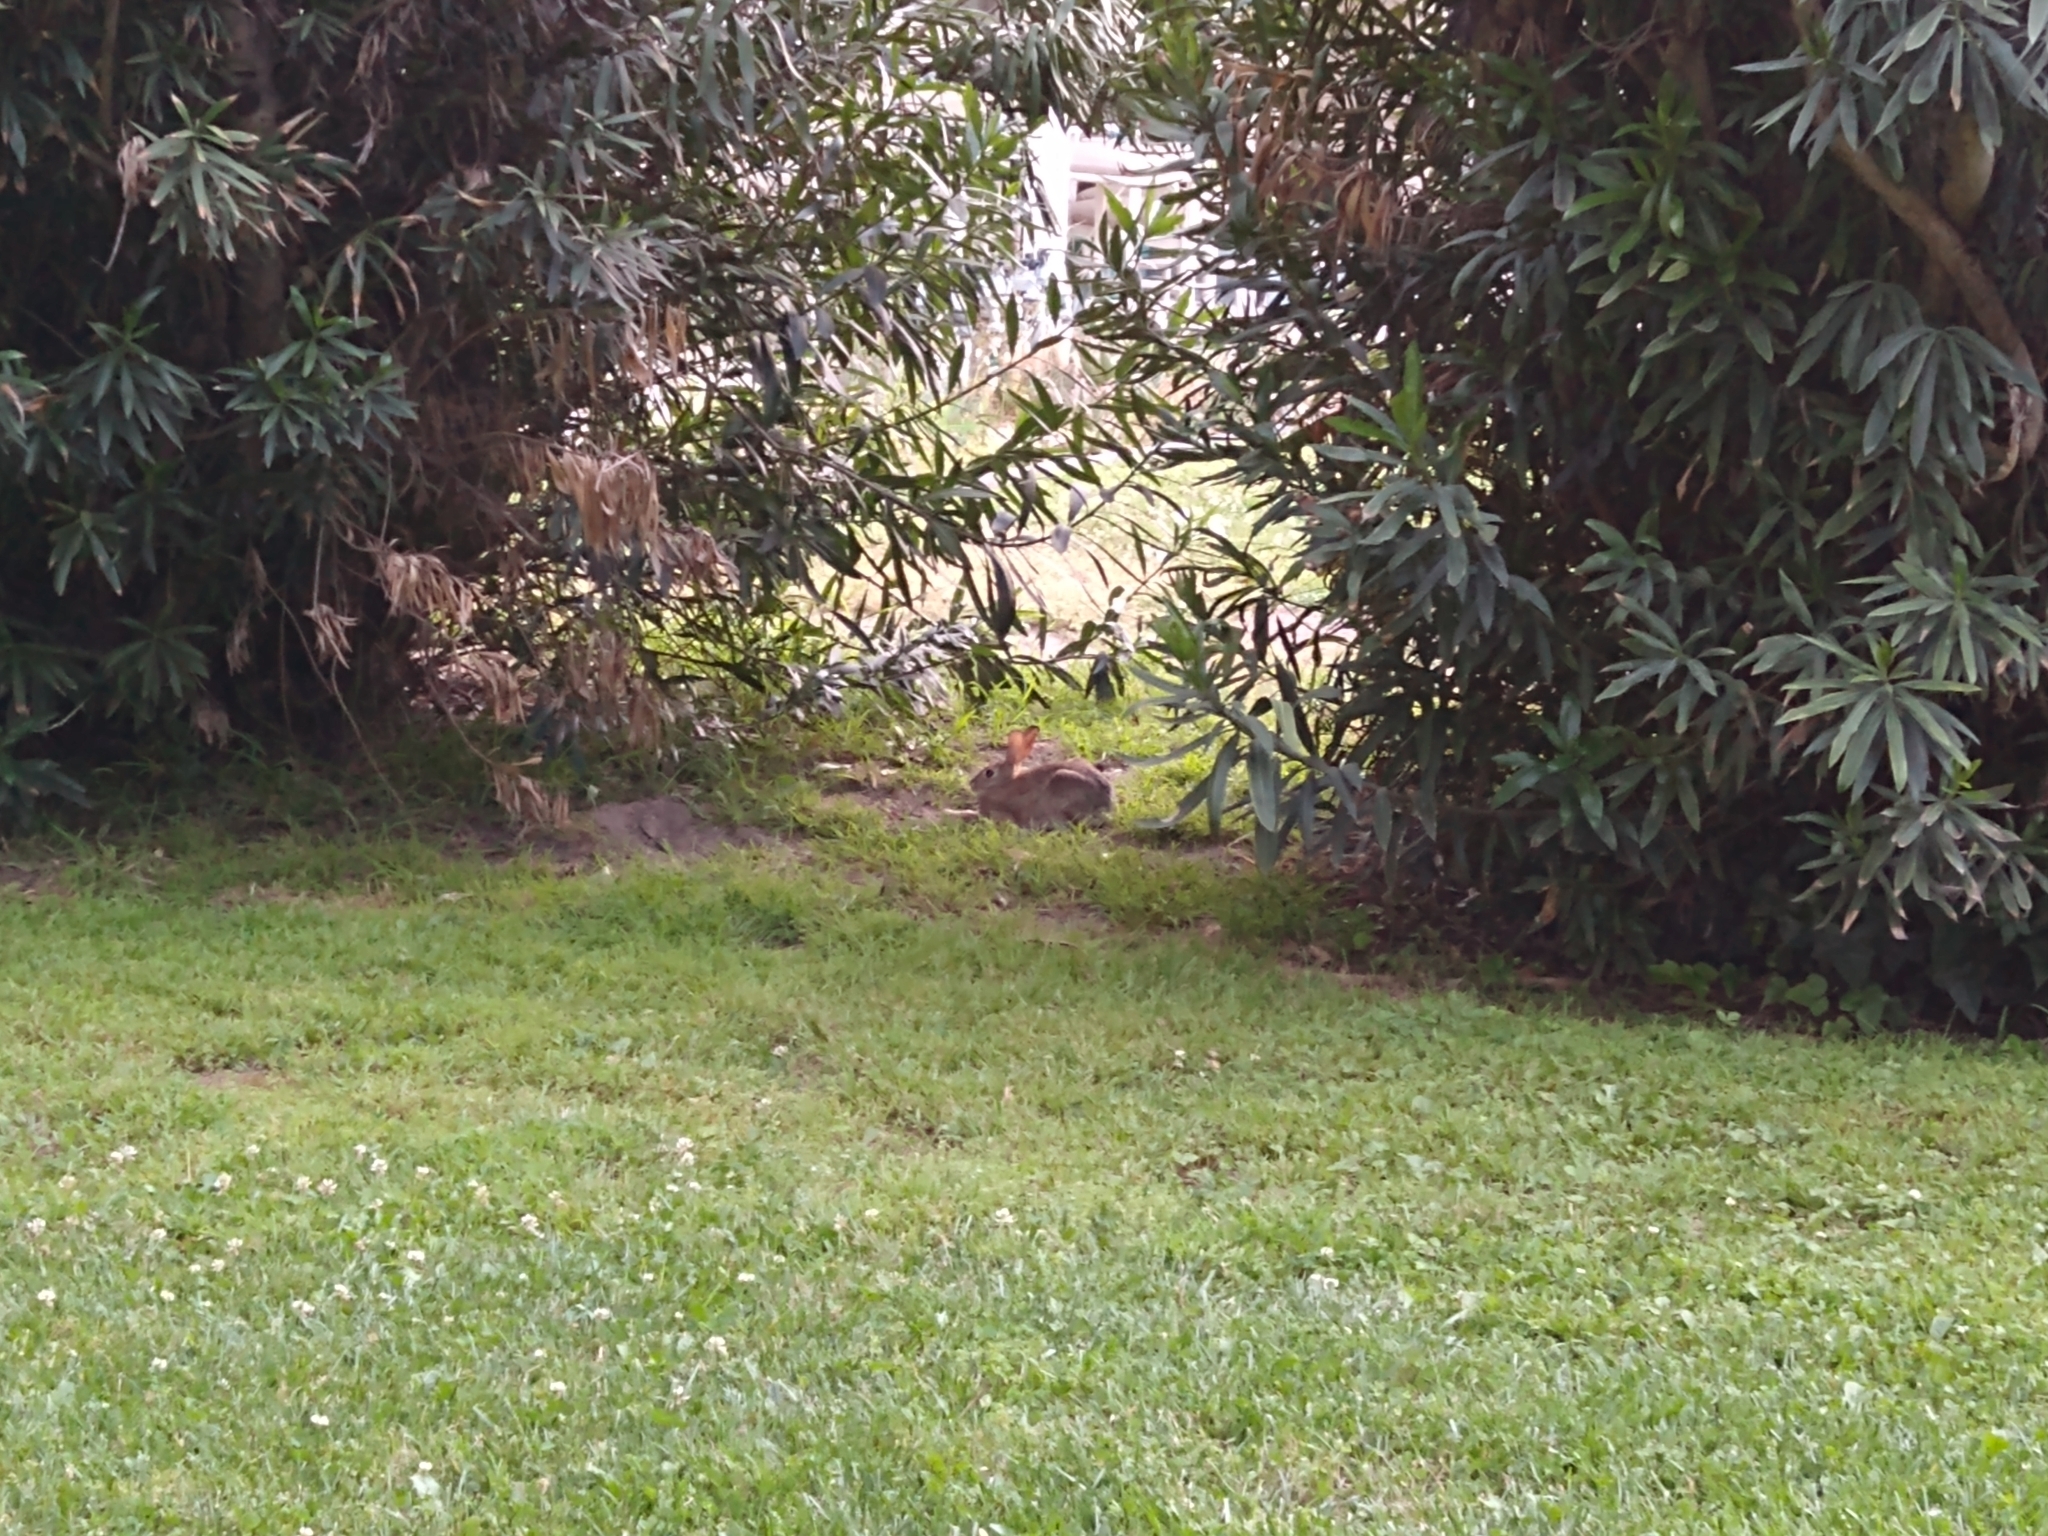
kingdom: Animalia
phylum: Chordata
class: Mammalia
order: Lagomorpha
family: Leporidae
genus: Sylvilagus
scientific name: Sylvilagus audubonii
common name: Desert cottontail
